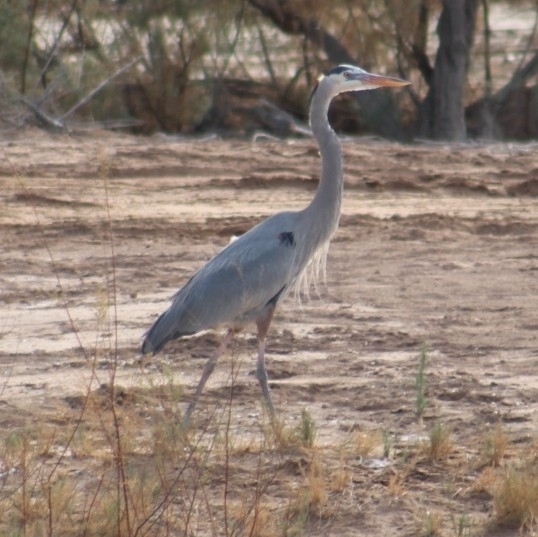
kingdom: Animalia
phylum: Chordata
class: Aves
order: Pelecaniformes
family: Ardeidae
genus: Ardea
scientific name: Ardea herodias
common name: Great blue heron
